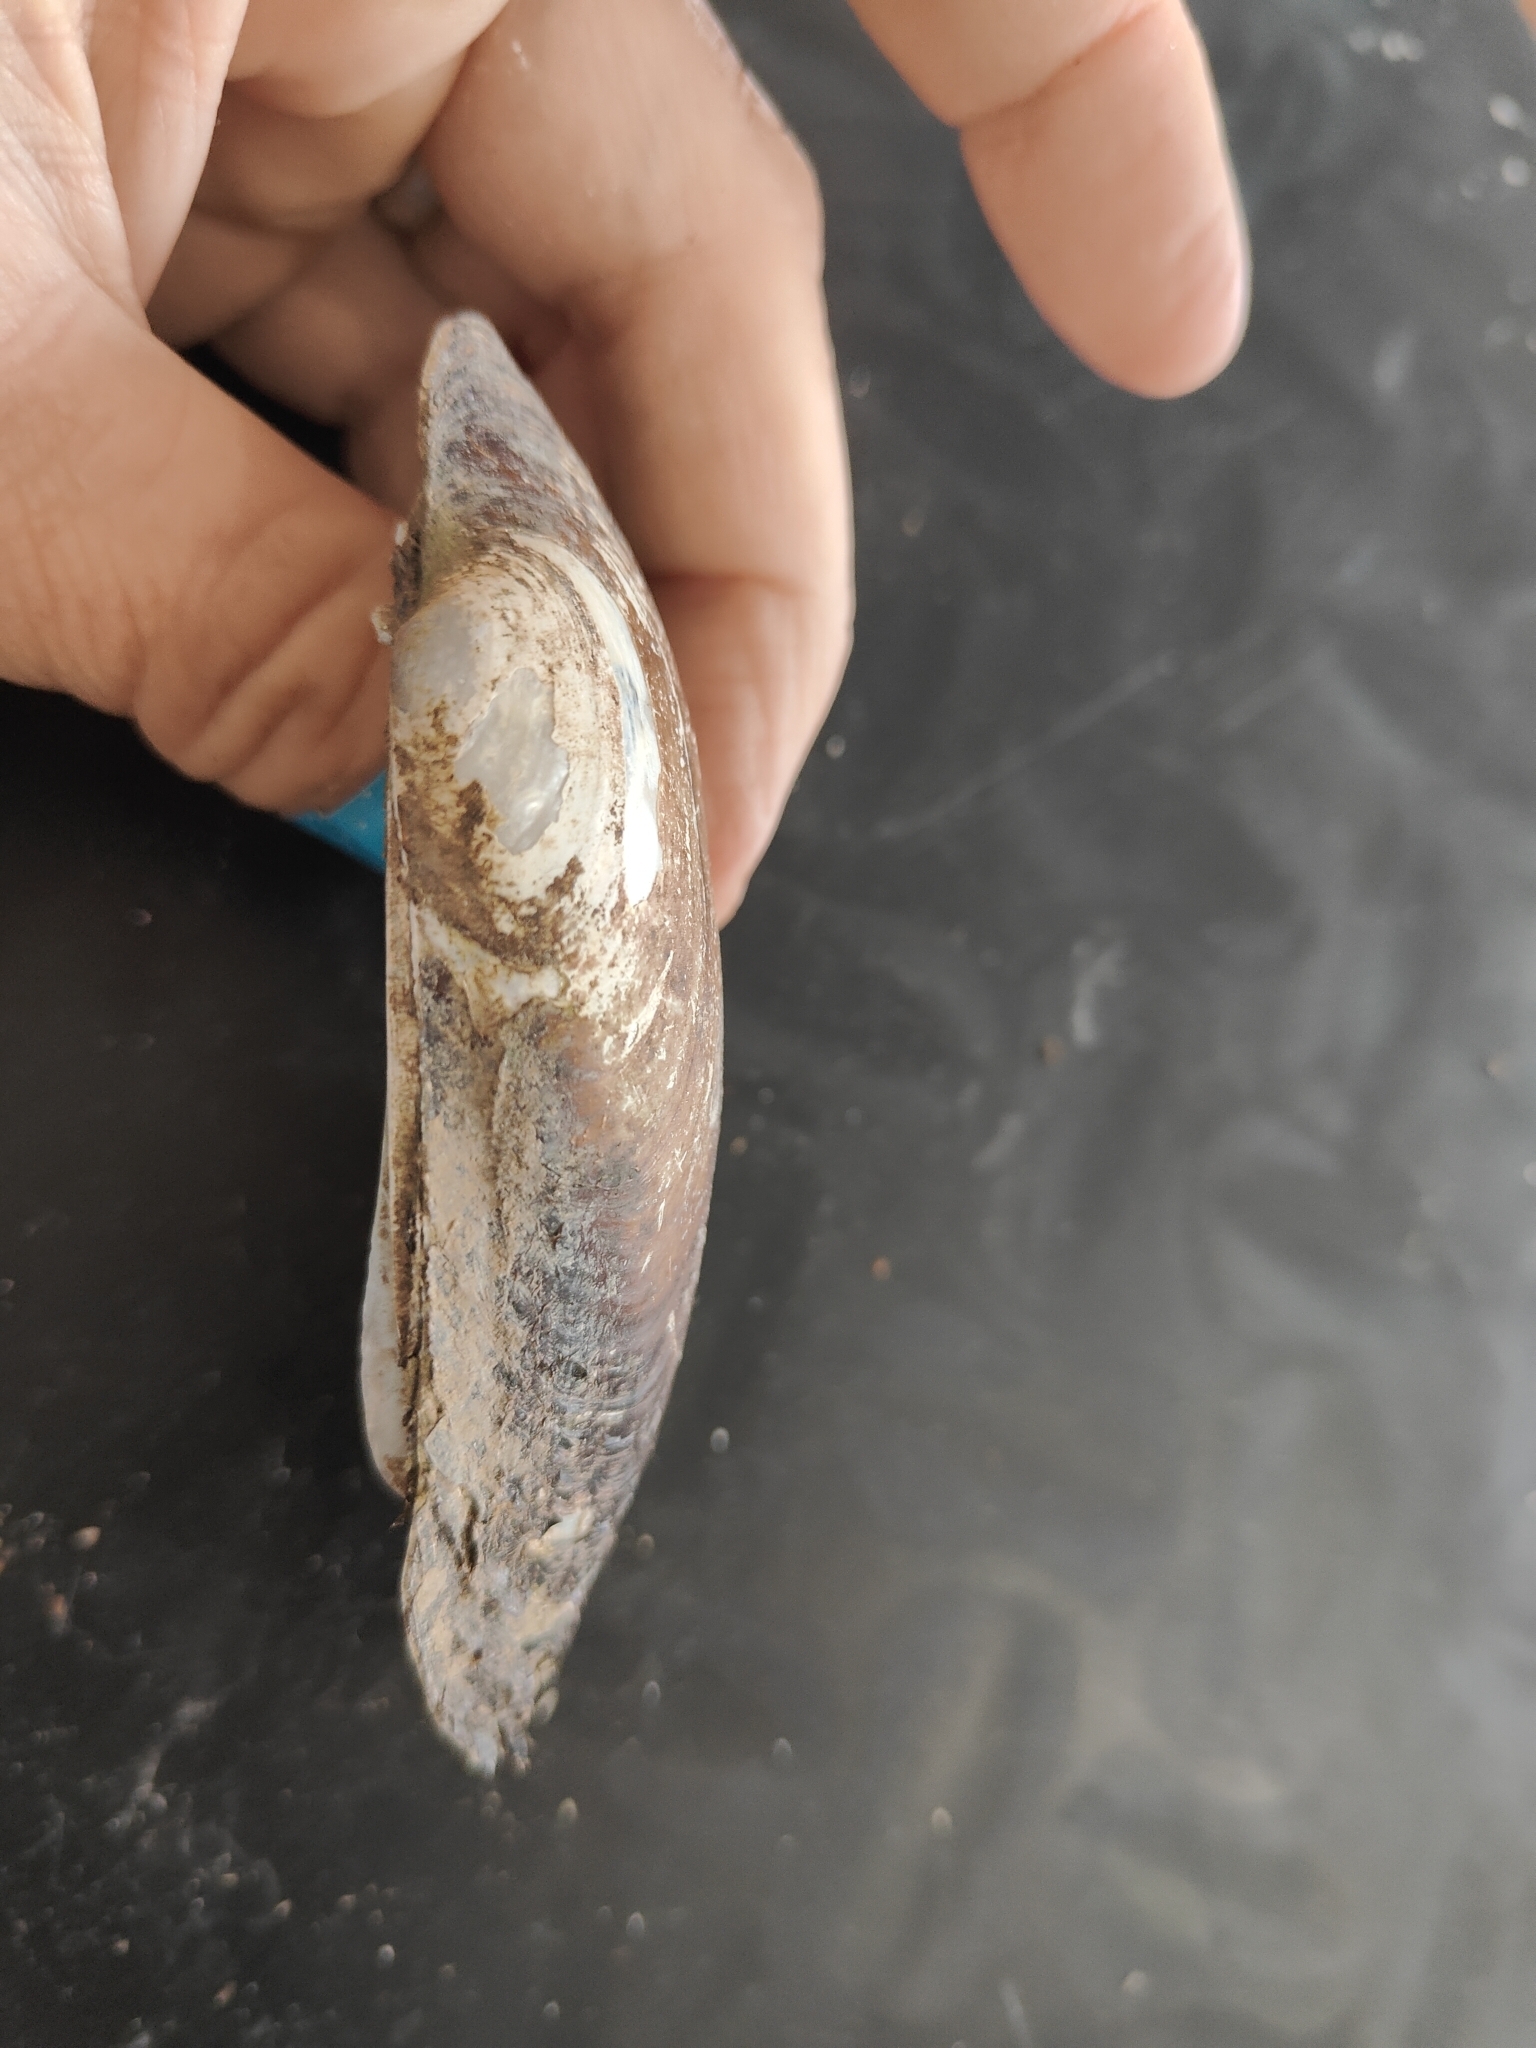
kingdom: Animalia
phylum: Mollusca
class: Bivalvia
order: Unionida
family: Unionidae
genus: Lampsilis
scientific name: Lampsilis siliquoidea
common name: Fatmucket
